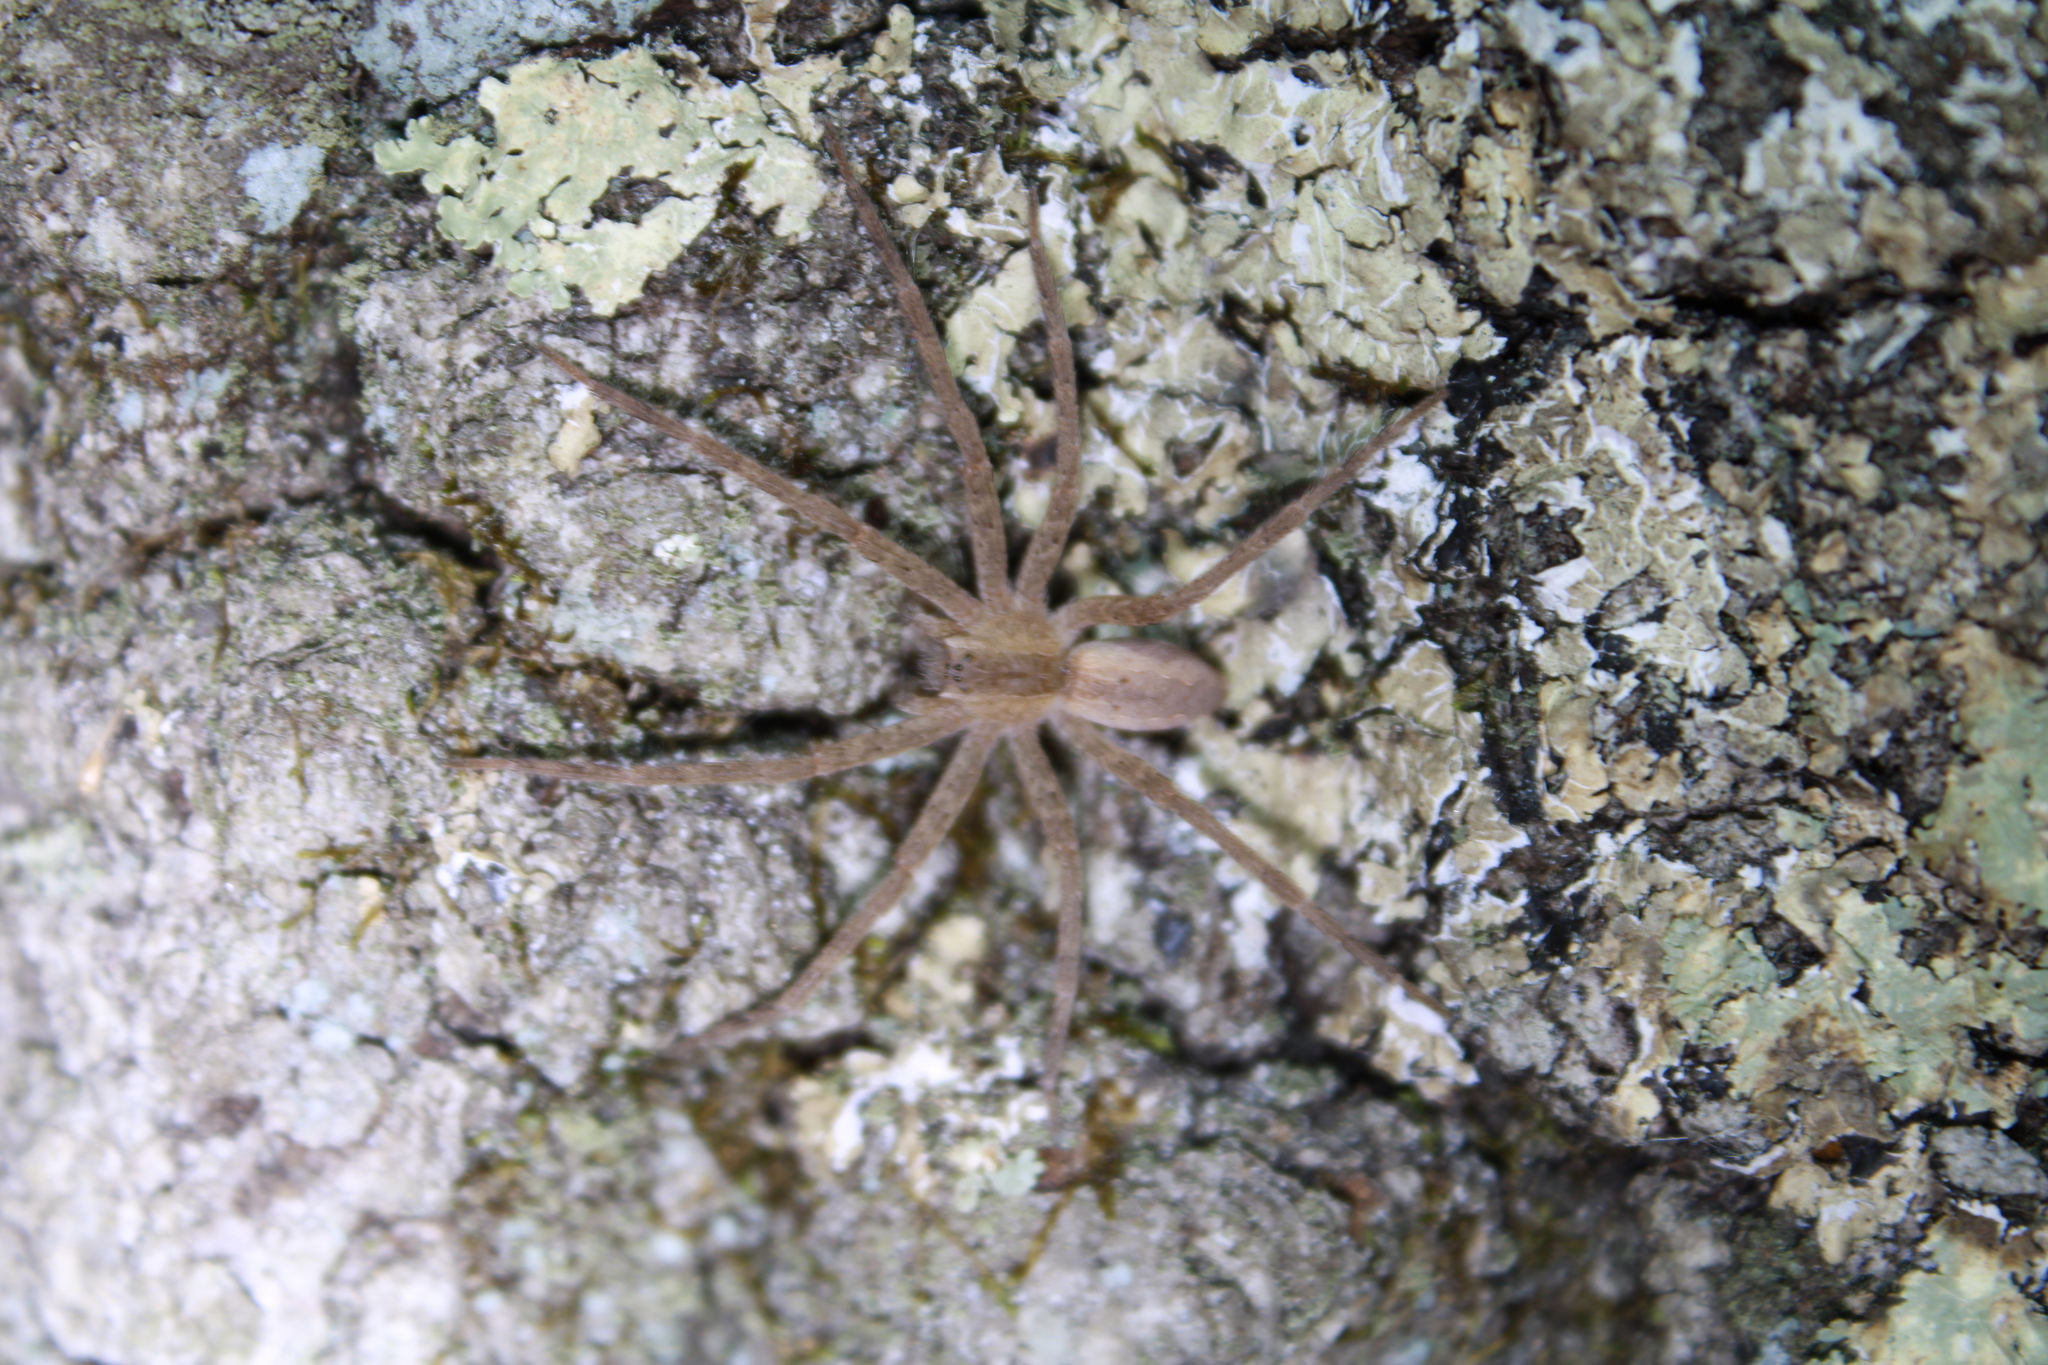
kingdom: Animalia
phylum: Arthropoda
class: Arachnida
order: Araneae
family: Pisauridae
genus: Pisaurina
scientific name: Pisaurina mira
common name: American nursery web spider
